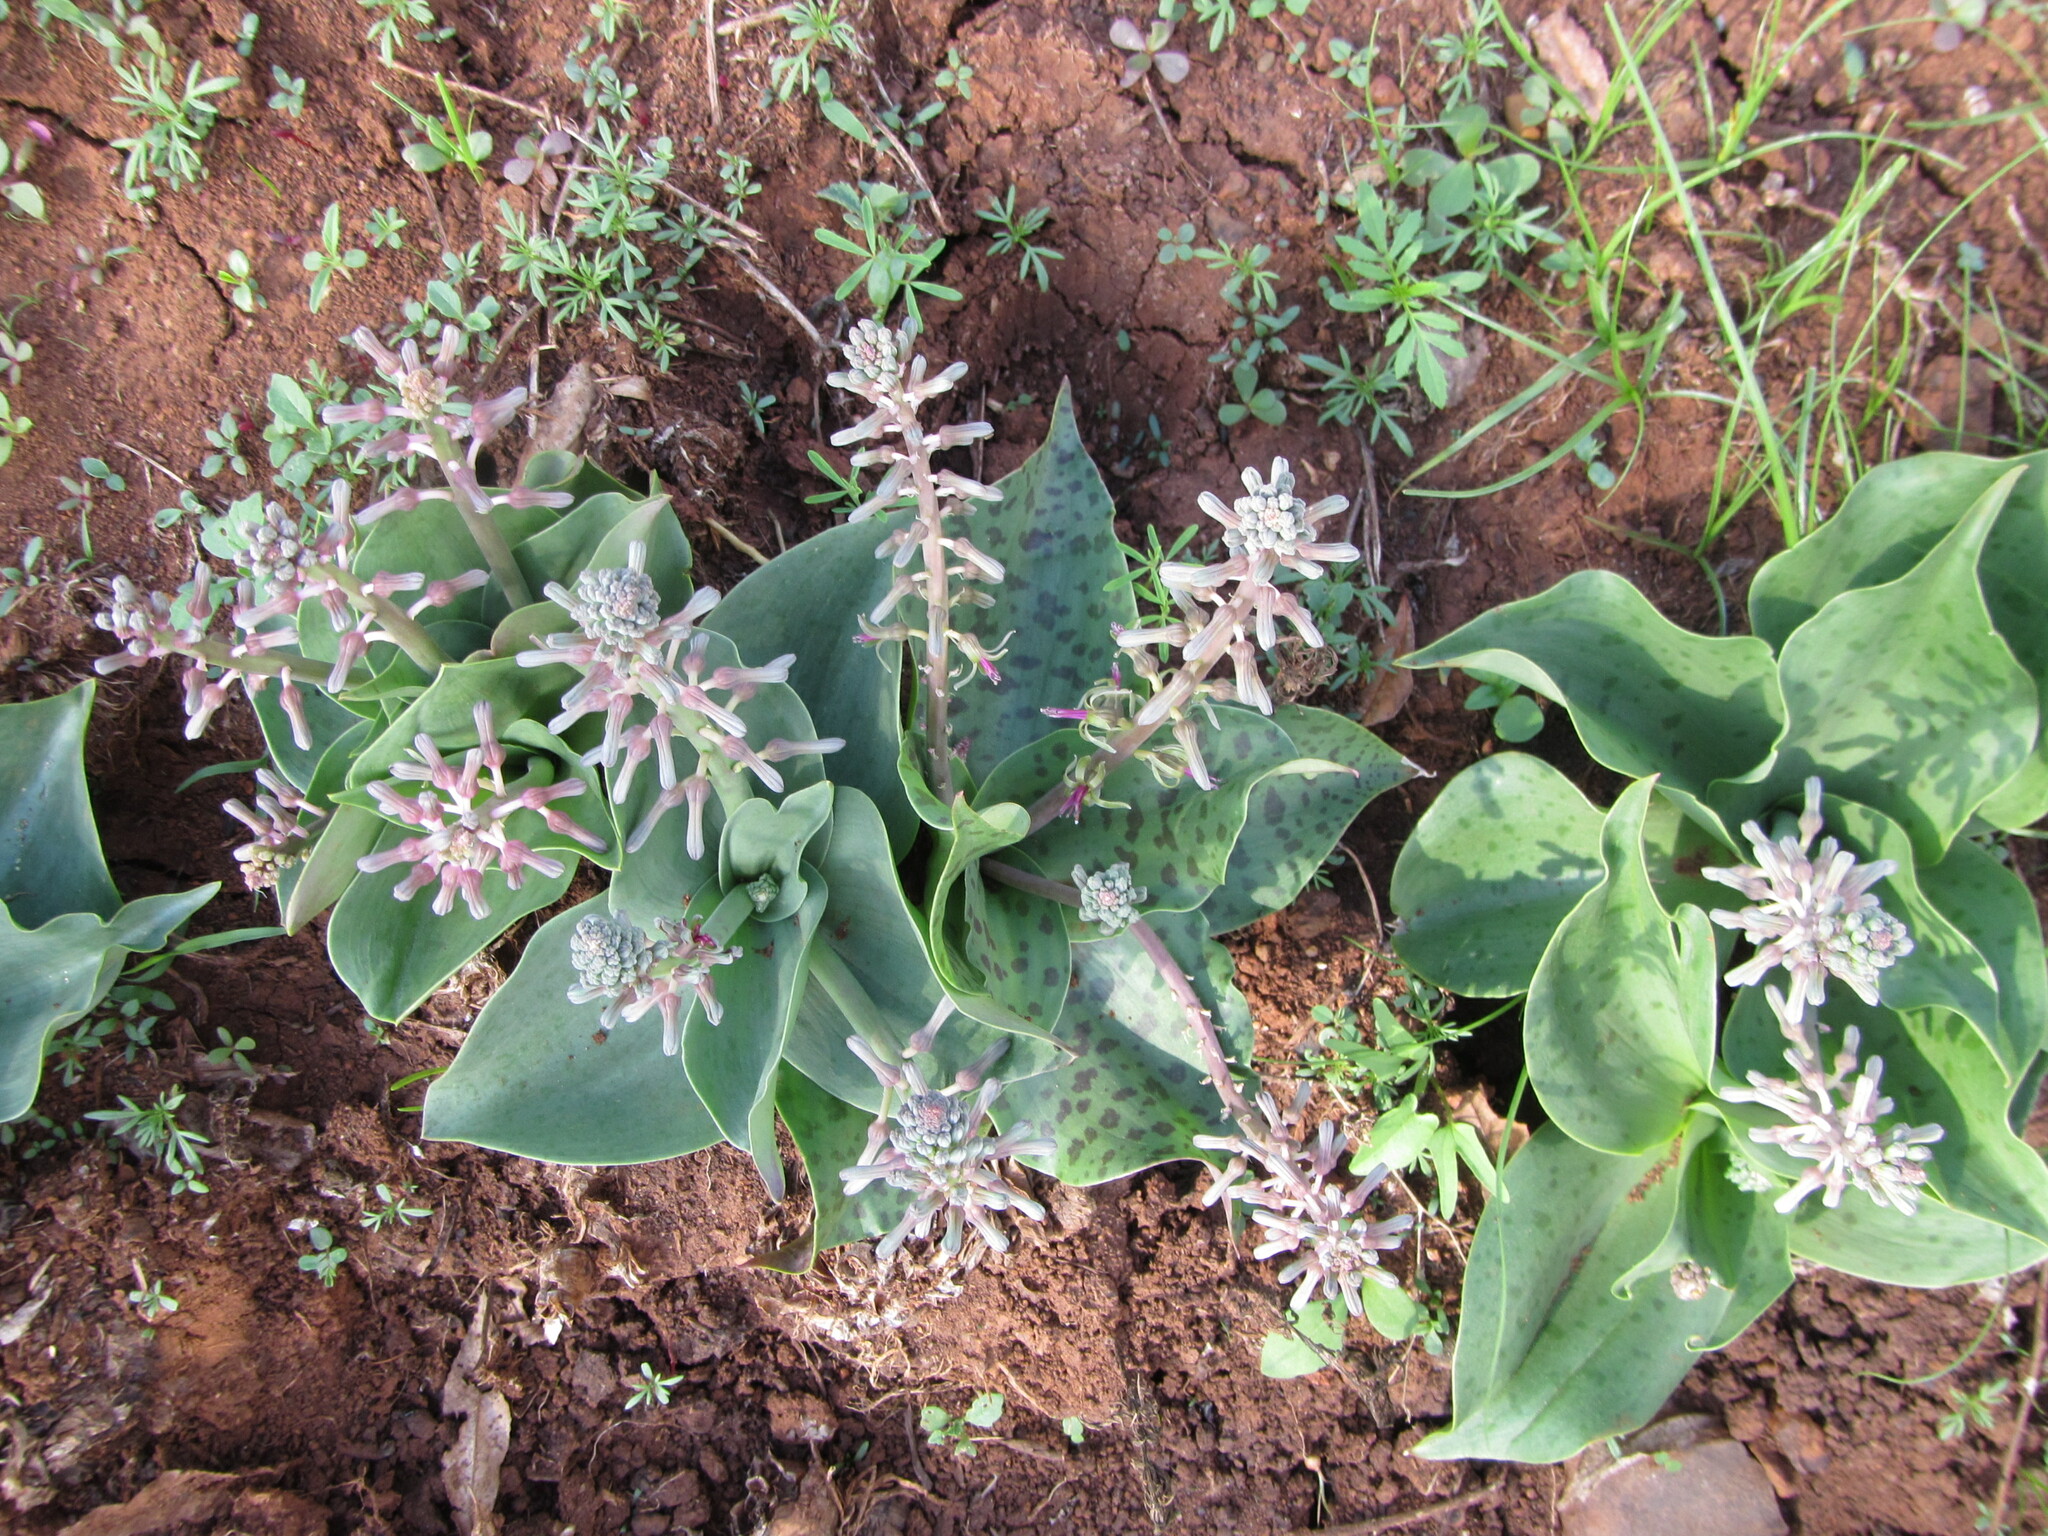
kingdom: Plantae
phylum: Tracheophyta
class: Liliopsida
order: Asparagales
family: Asparagaceae
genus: Ledebouria
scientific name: Ledebouria kirkii
